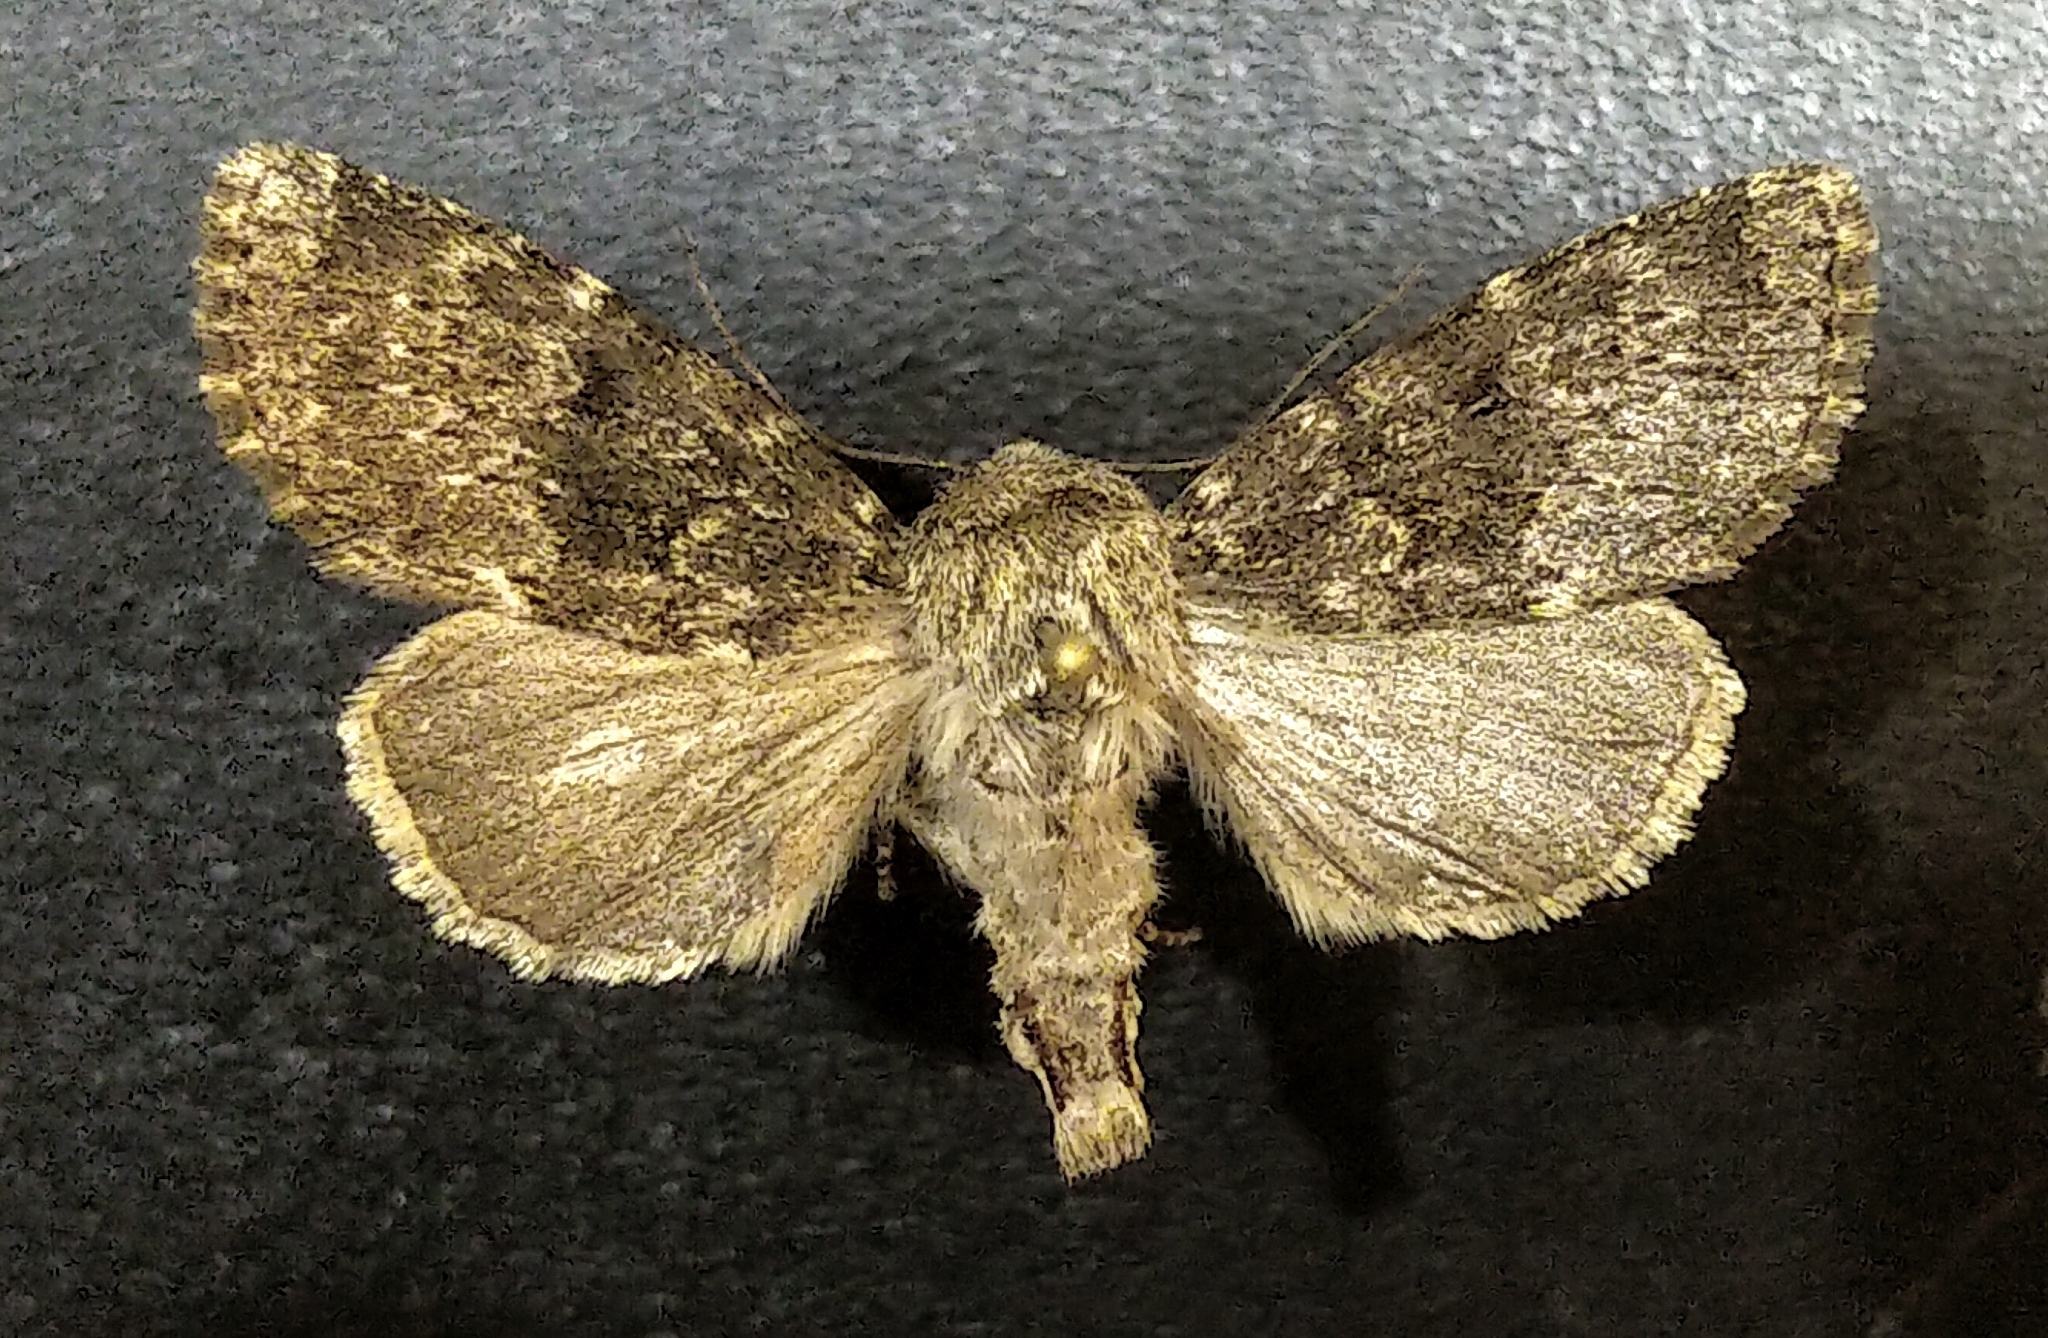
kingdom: Animalia
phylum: Arthropoda
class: Insecta
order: Lepidoptera
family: Noctuidae
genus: Apamea
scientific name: Apamea zeta
